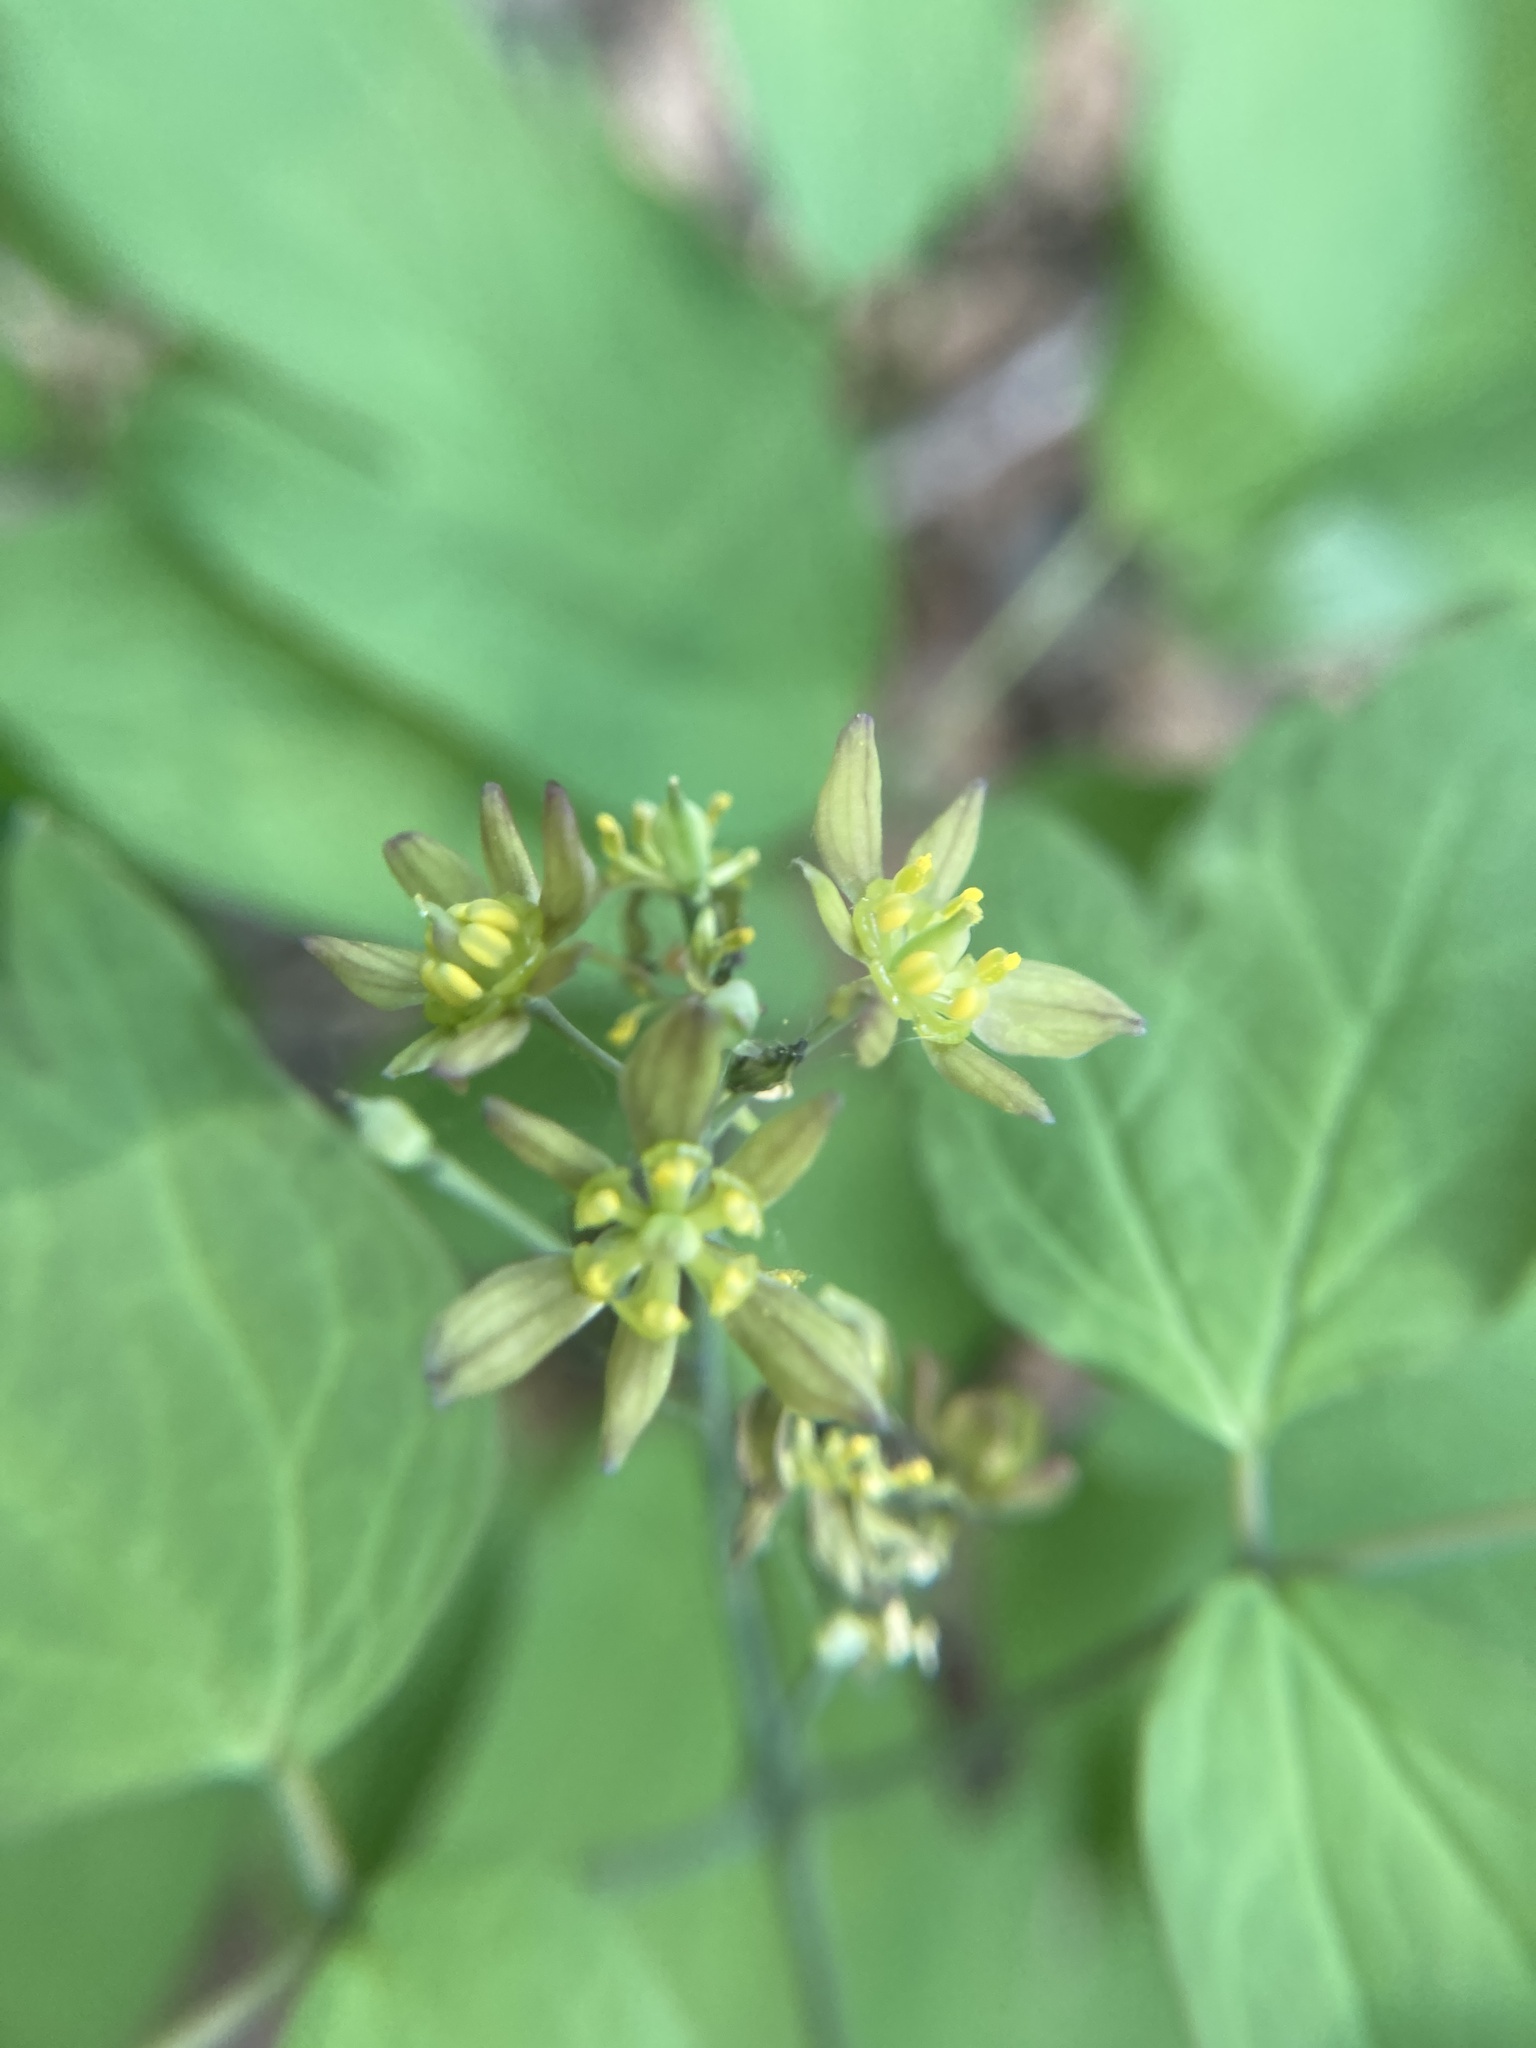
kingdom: Plantae
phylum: Tracheophyta
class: Magnoliopsida
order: Ranunculales
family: Berberidaceae
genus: Caulophyllum
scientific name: Caulophyllum thalictroides
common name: Blue cohosh
